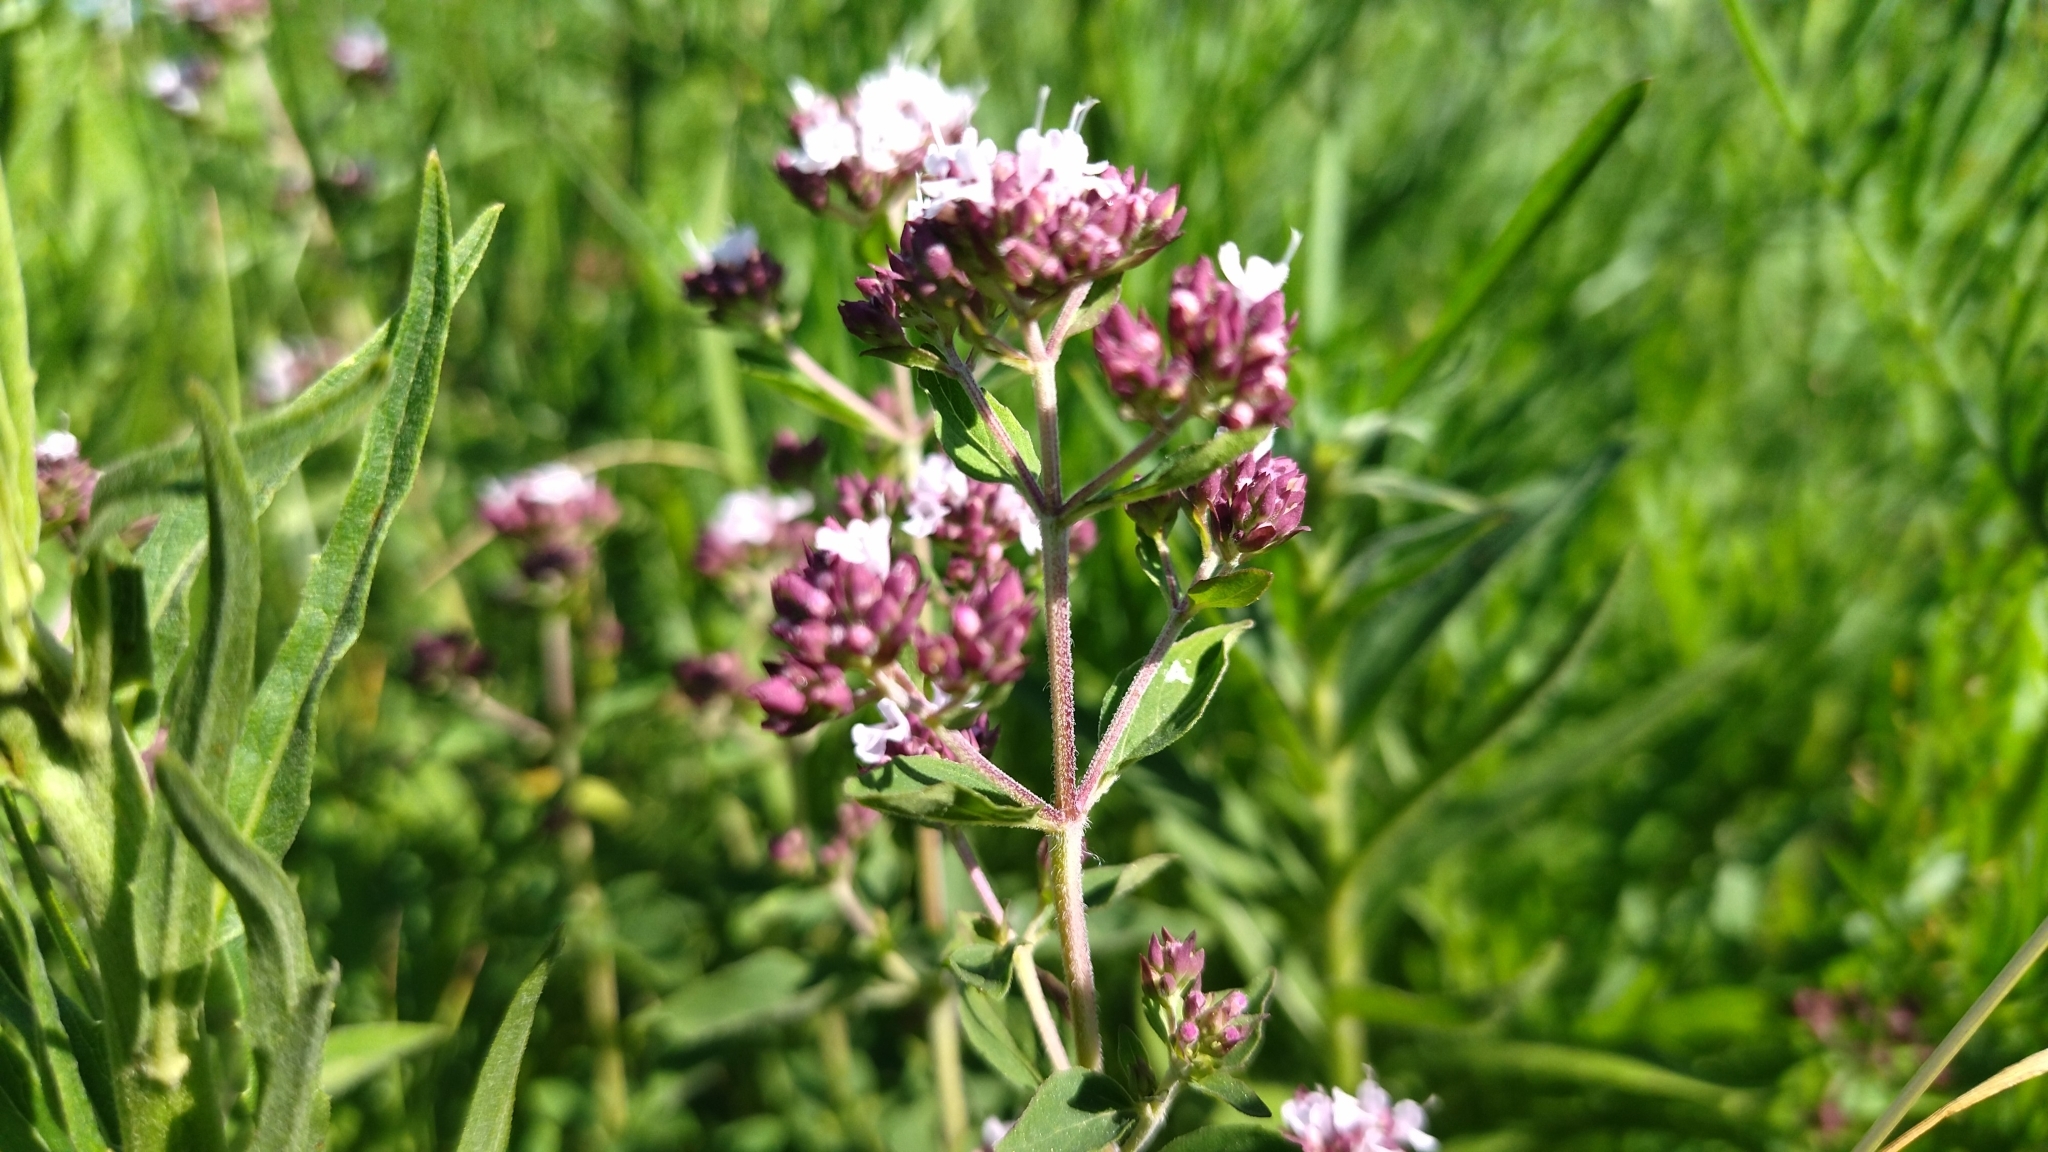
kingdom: Plantae
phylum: Tracheophyta
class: Magnoliopsida
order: Lamiales
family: Lamiaceae
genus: Origanum
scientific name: Origanum vulgare
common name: Wild marjoram
